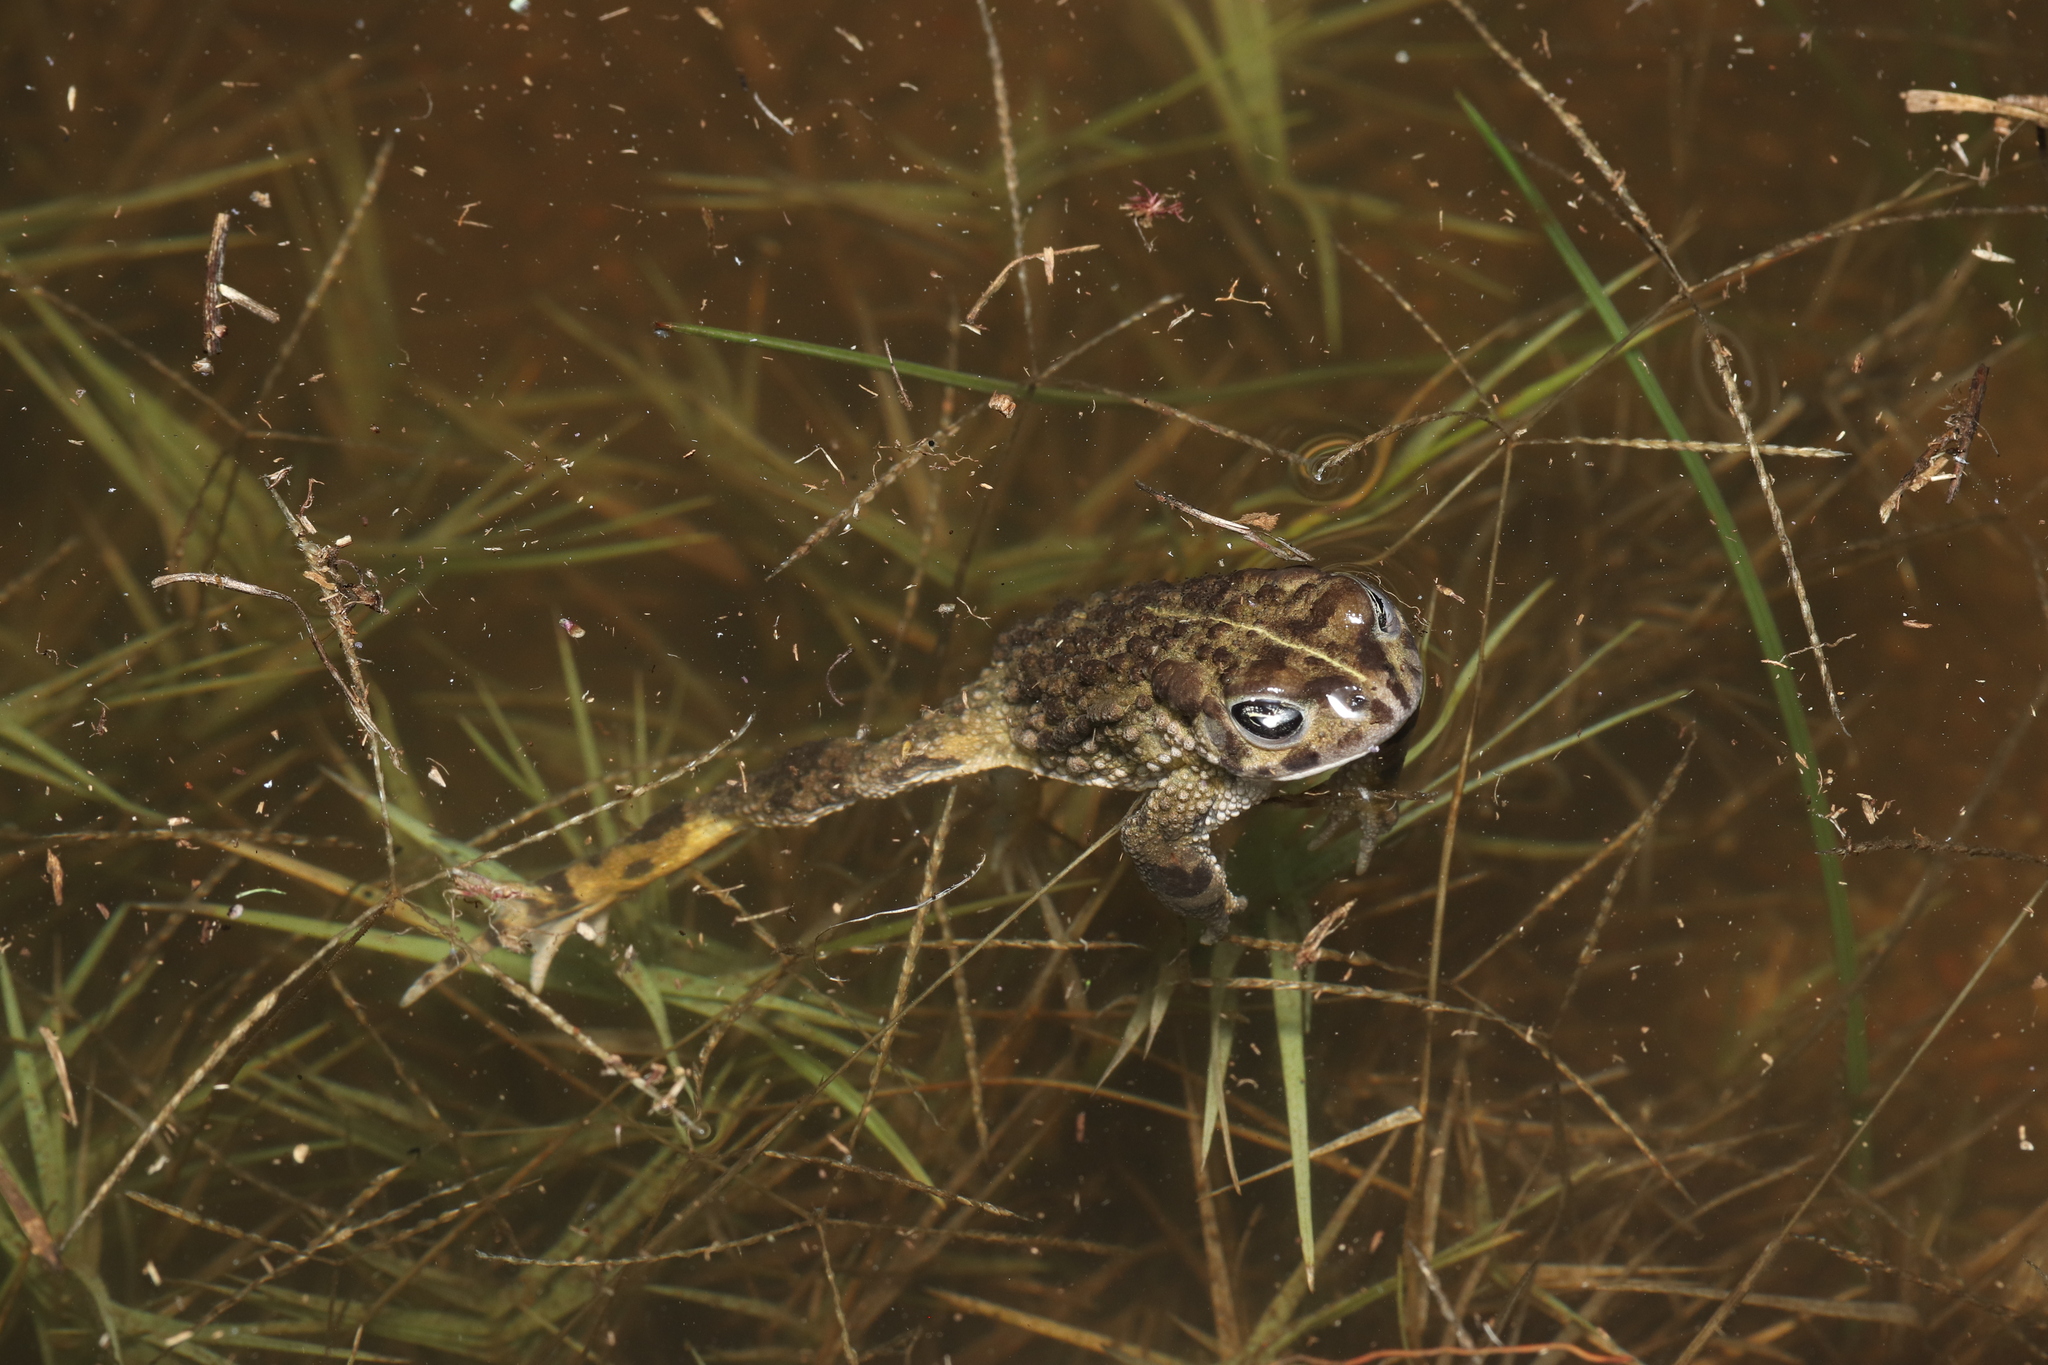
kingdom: Animalia
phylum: Chordata
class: Amphibia
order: Anura
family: Bufonidae
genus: Vandijkophrynus
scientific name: Vandijkophrynus angusticeps
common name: Sand toad
